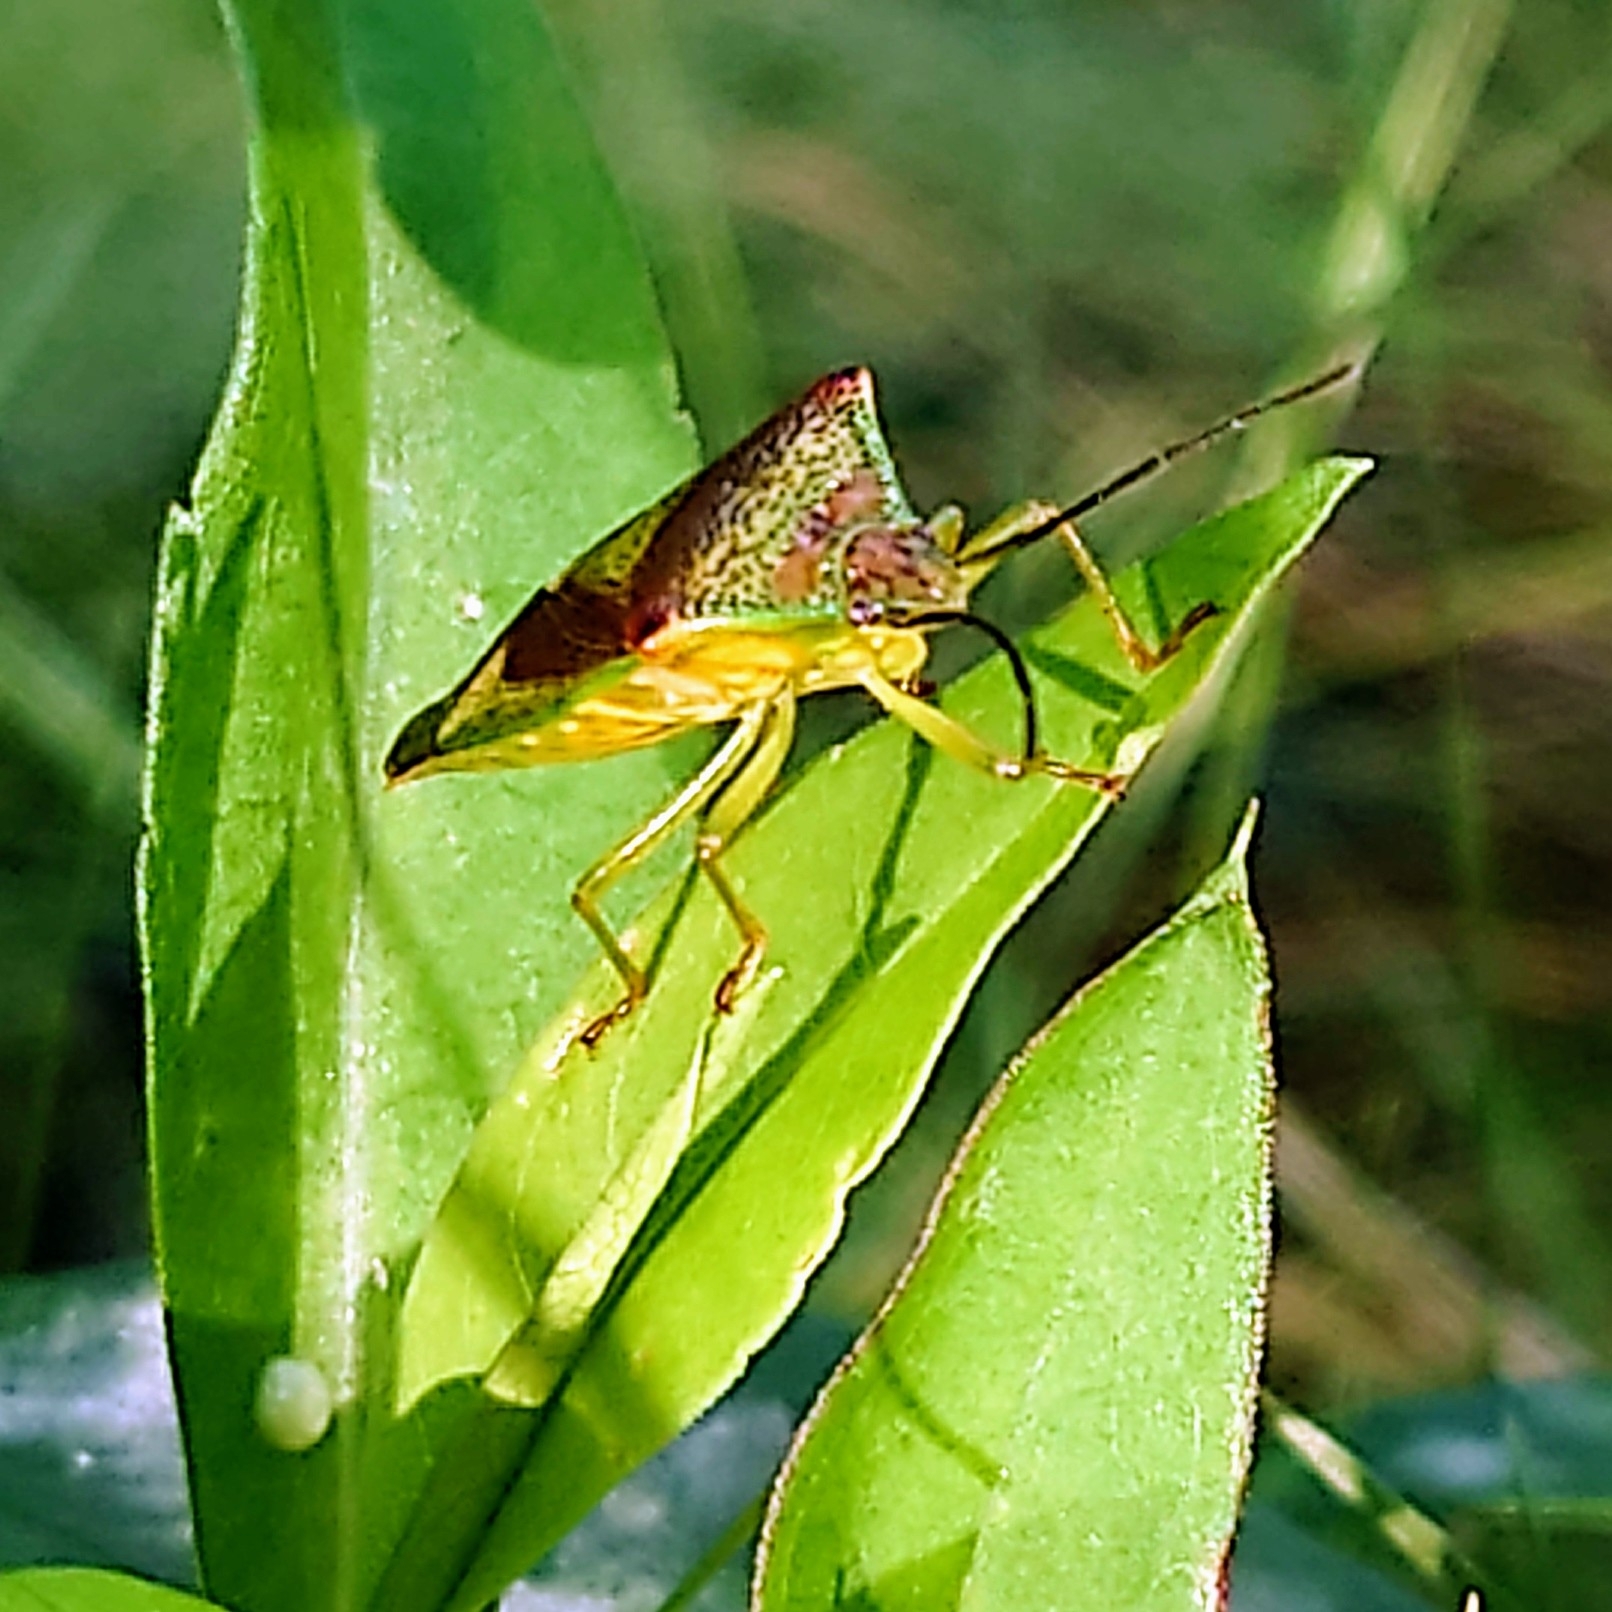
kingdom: Animalia
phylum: Arthropoda
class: Insecta
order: Hemiptera
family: Acanthosomatidae
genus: Acanthosoma
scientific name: Acanthosoma haemorrhoidale
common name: Hawthorn shieldbug
